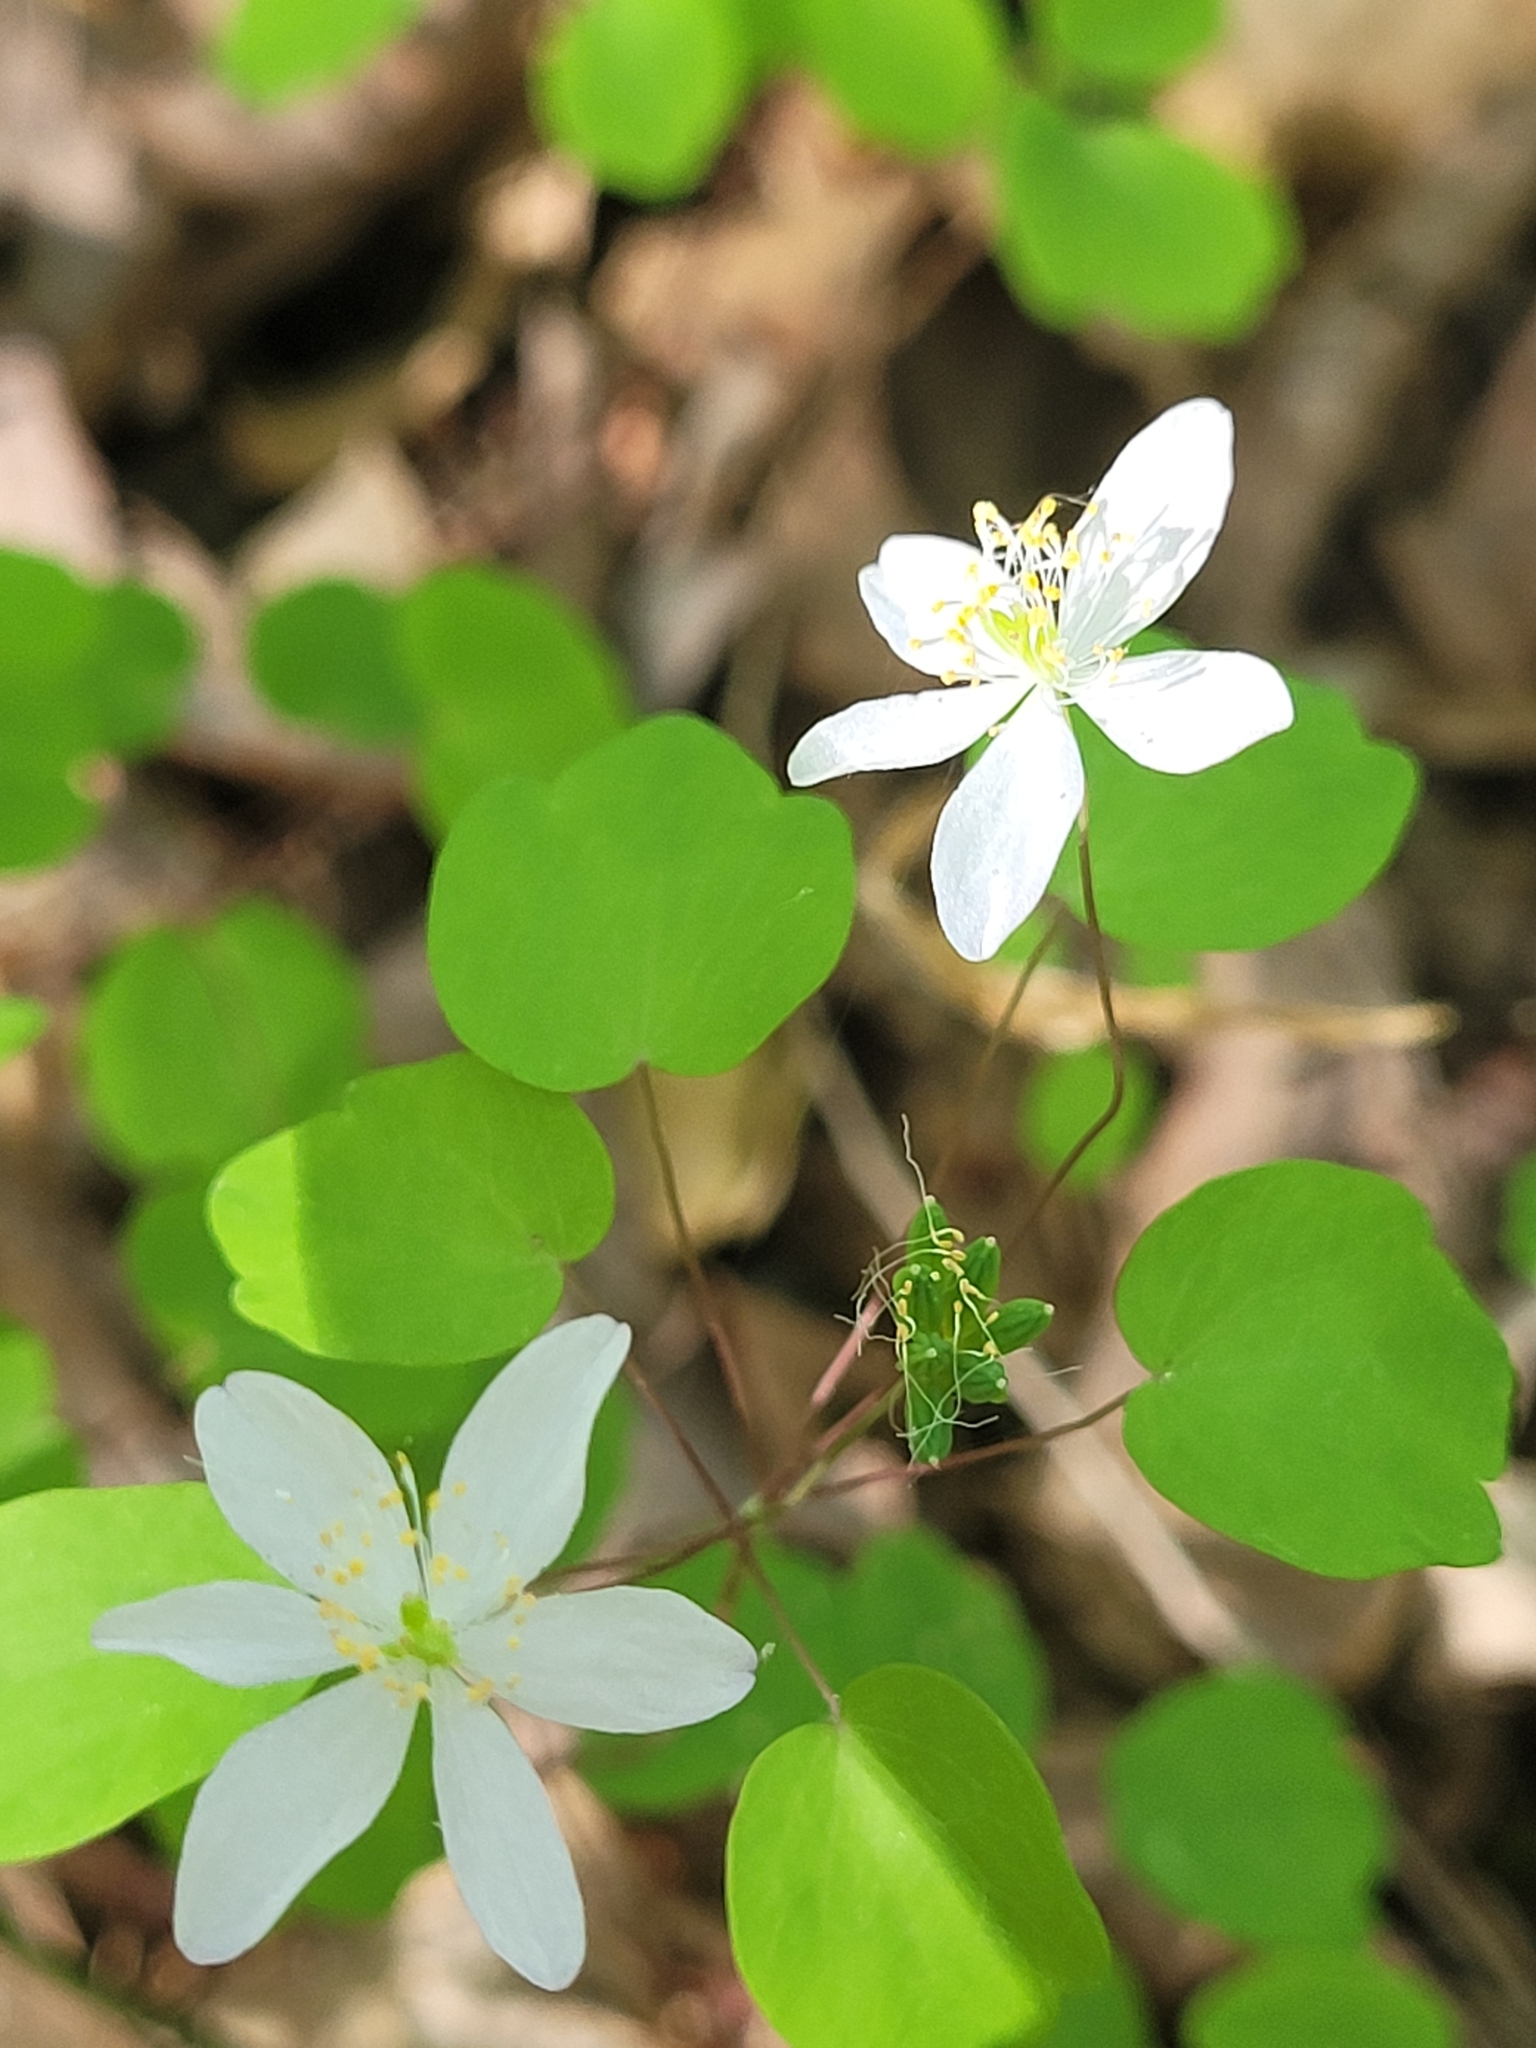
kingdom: Plantae
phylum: Tracheophyta
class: Magnoliopsida
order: Ranunculales
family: Ranunculaceae
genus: Thalictrum
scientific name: Thalictrum thalictroides
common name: Rue-anemone
